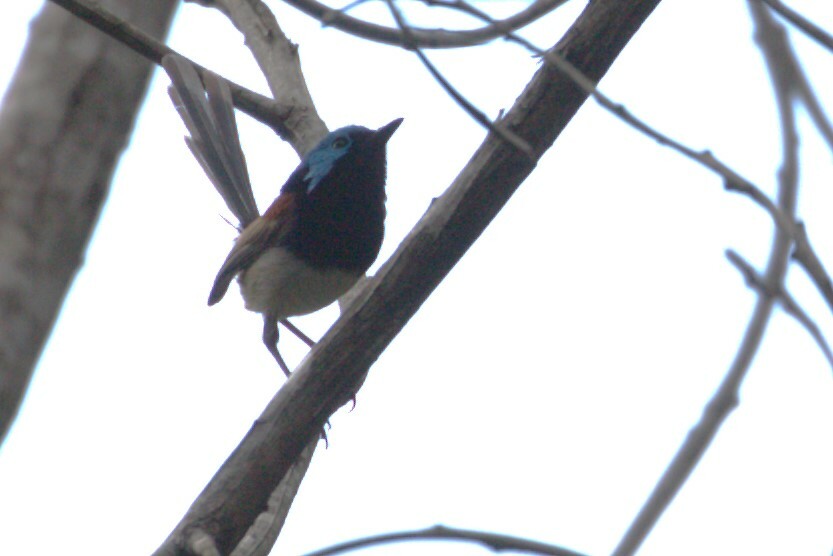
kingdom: Animalia
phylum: Chordata
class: Aves
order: Passeriformes
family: Maluridae
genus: Malurus
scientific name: Malurus lamberti
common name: Variegated fairywren
